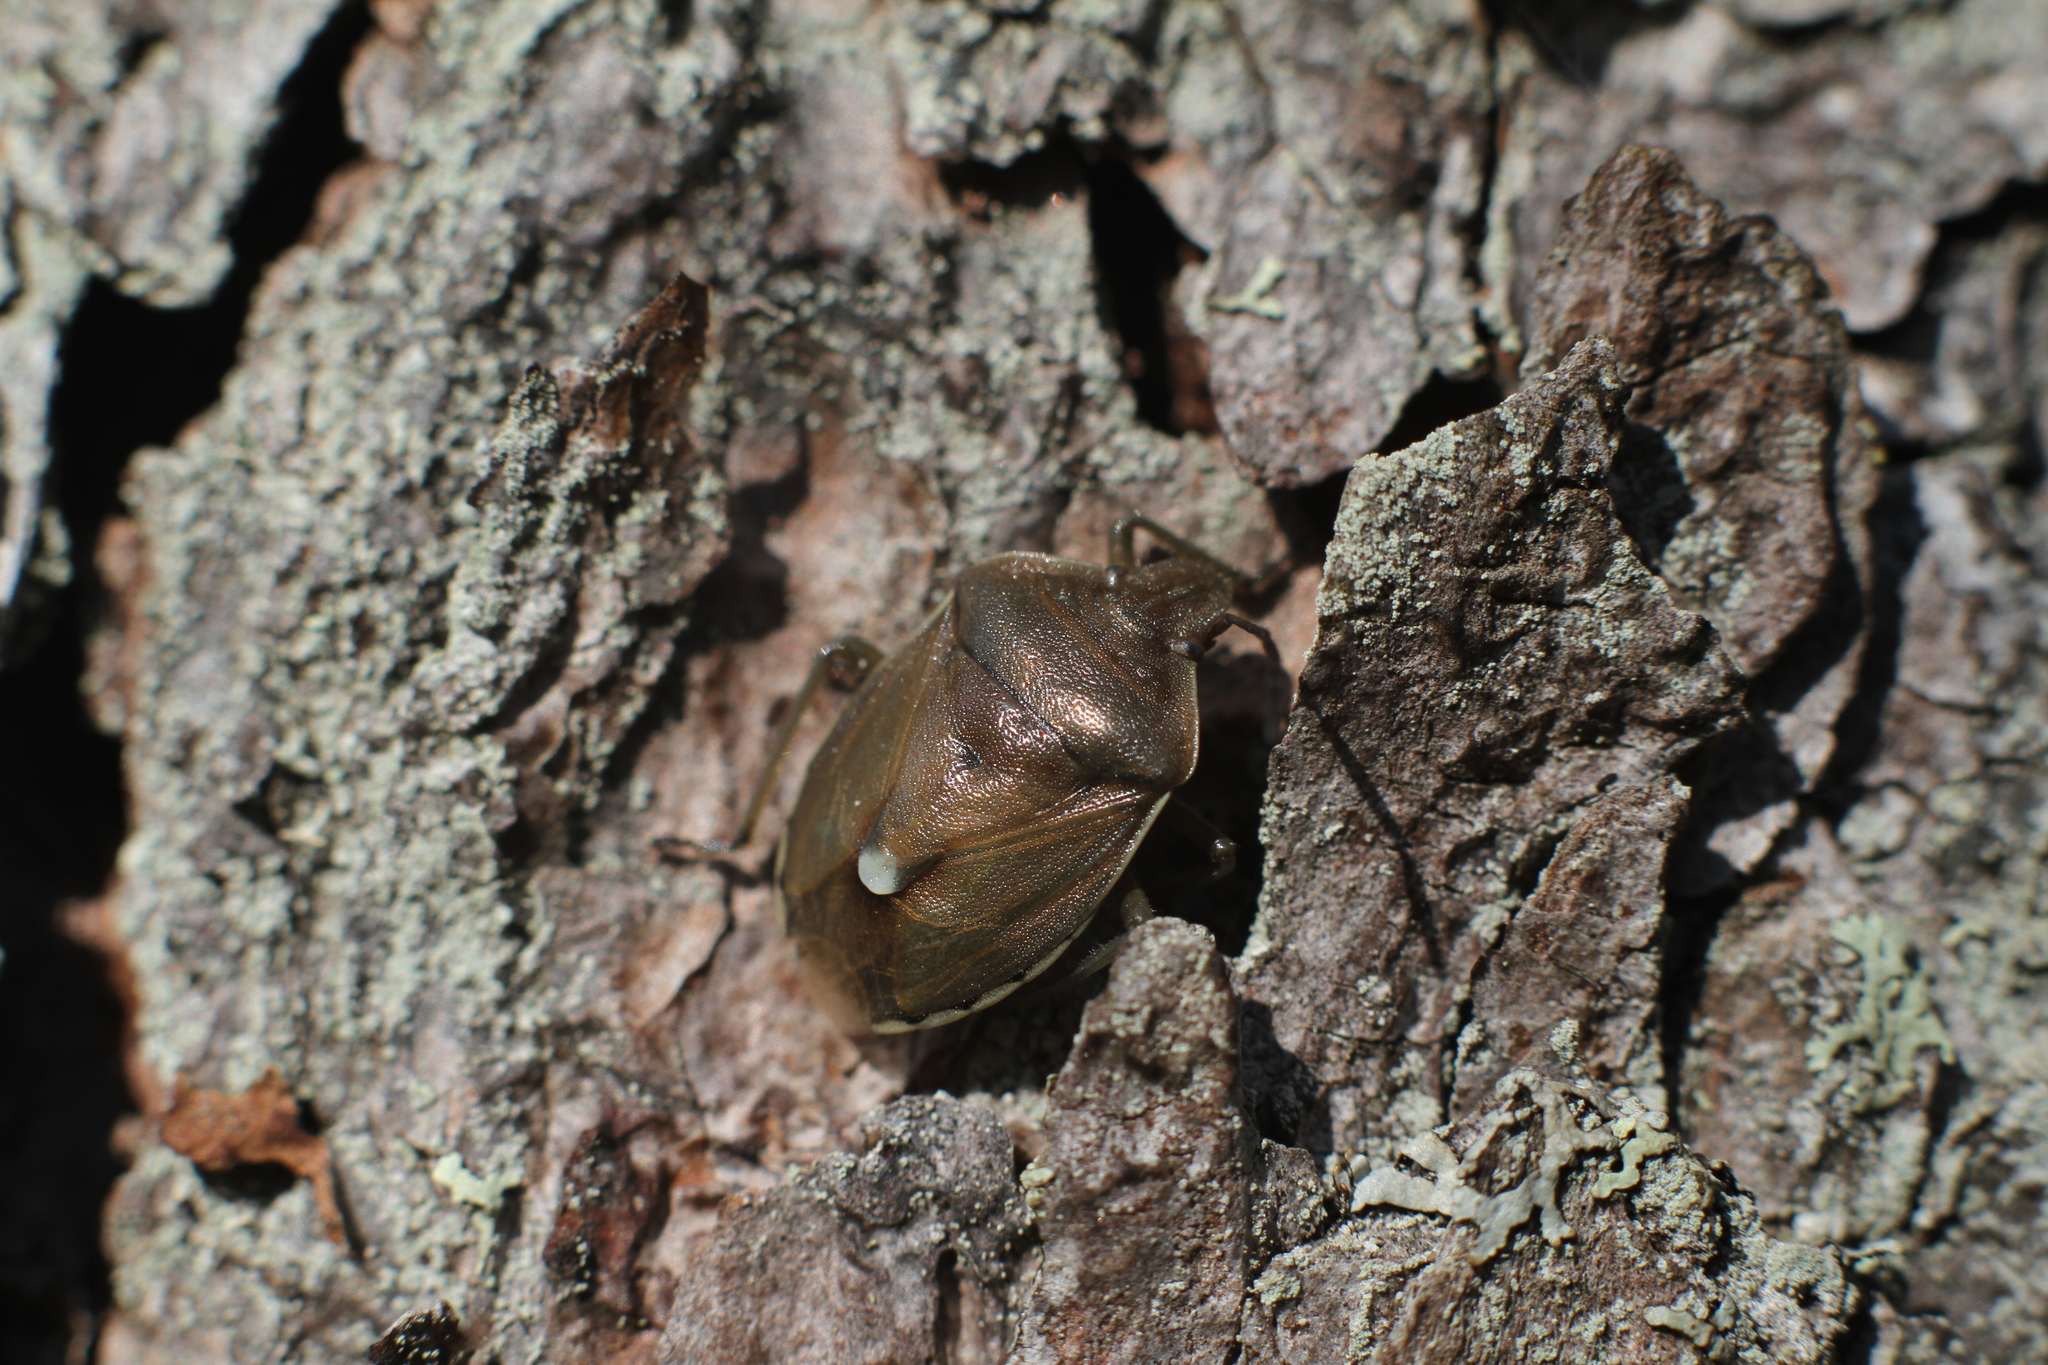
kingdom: Animalia
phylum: Arthropoda
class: Insecta
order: Hemiptera
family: Pentatomidae
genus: Chlorochroa
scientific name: Chlorochroa pinicola
